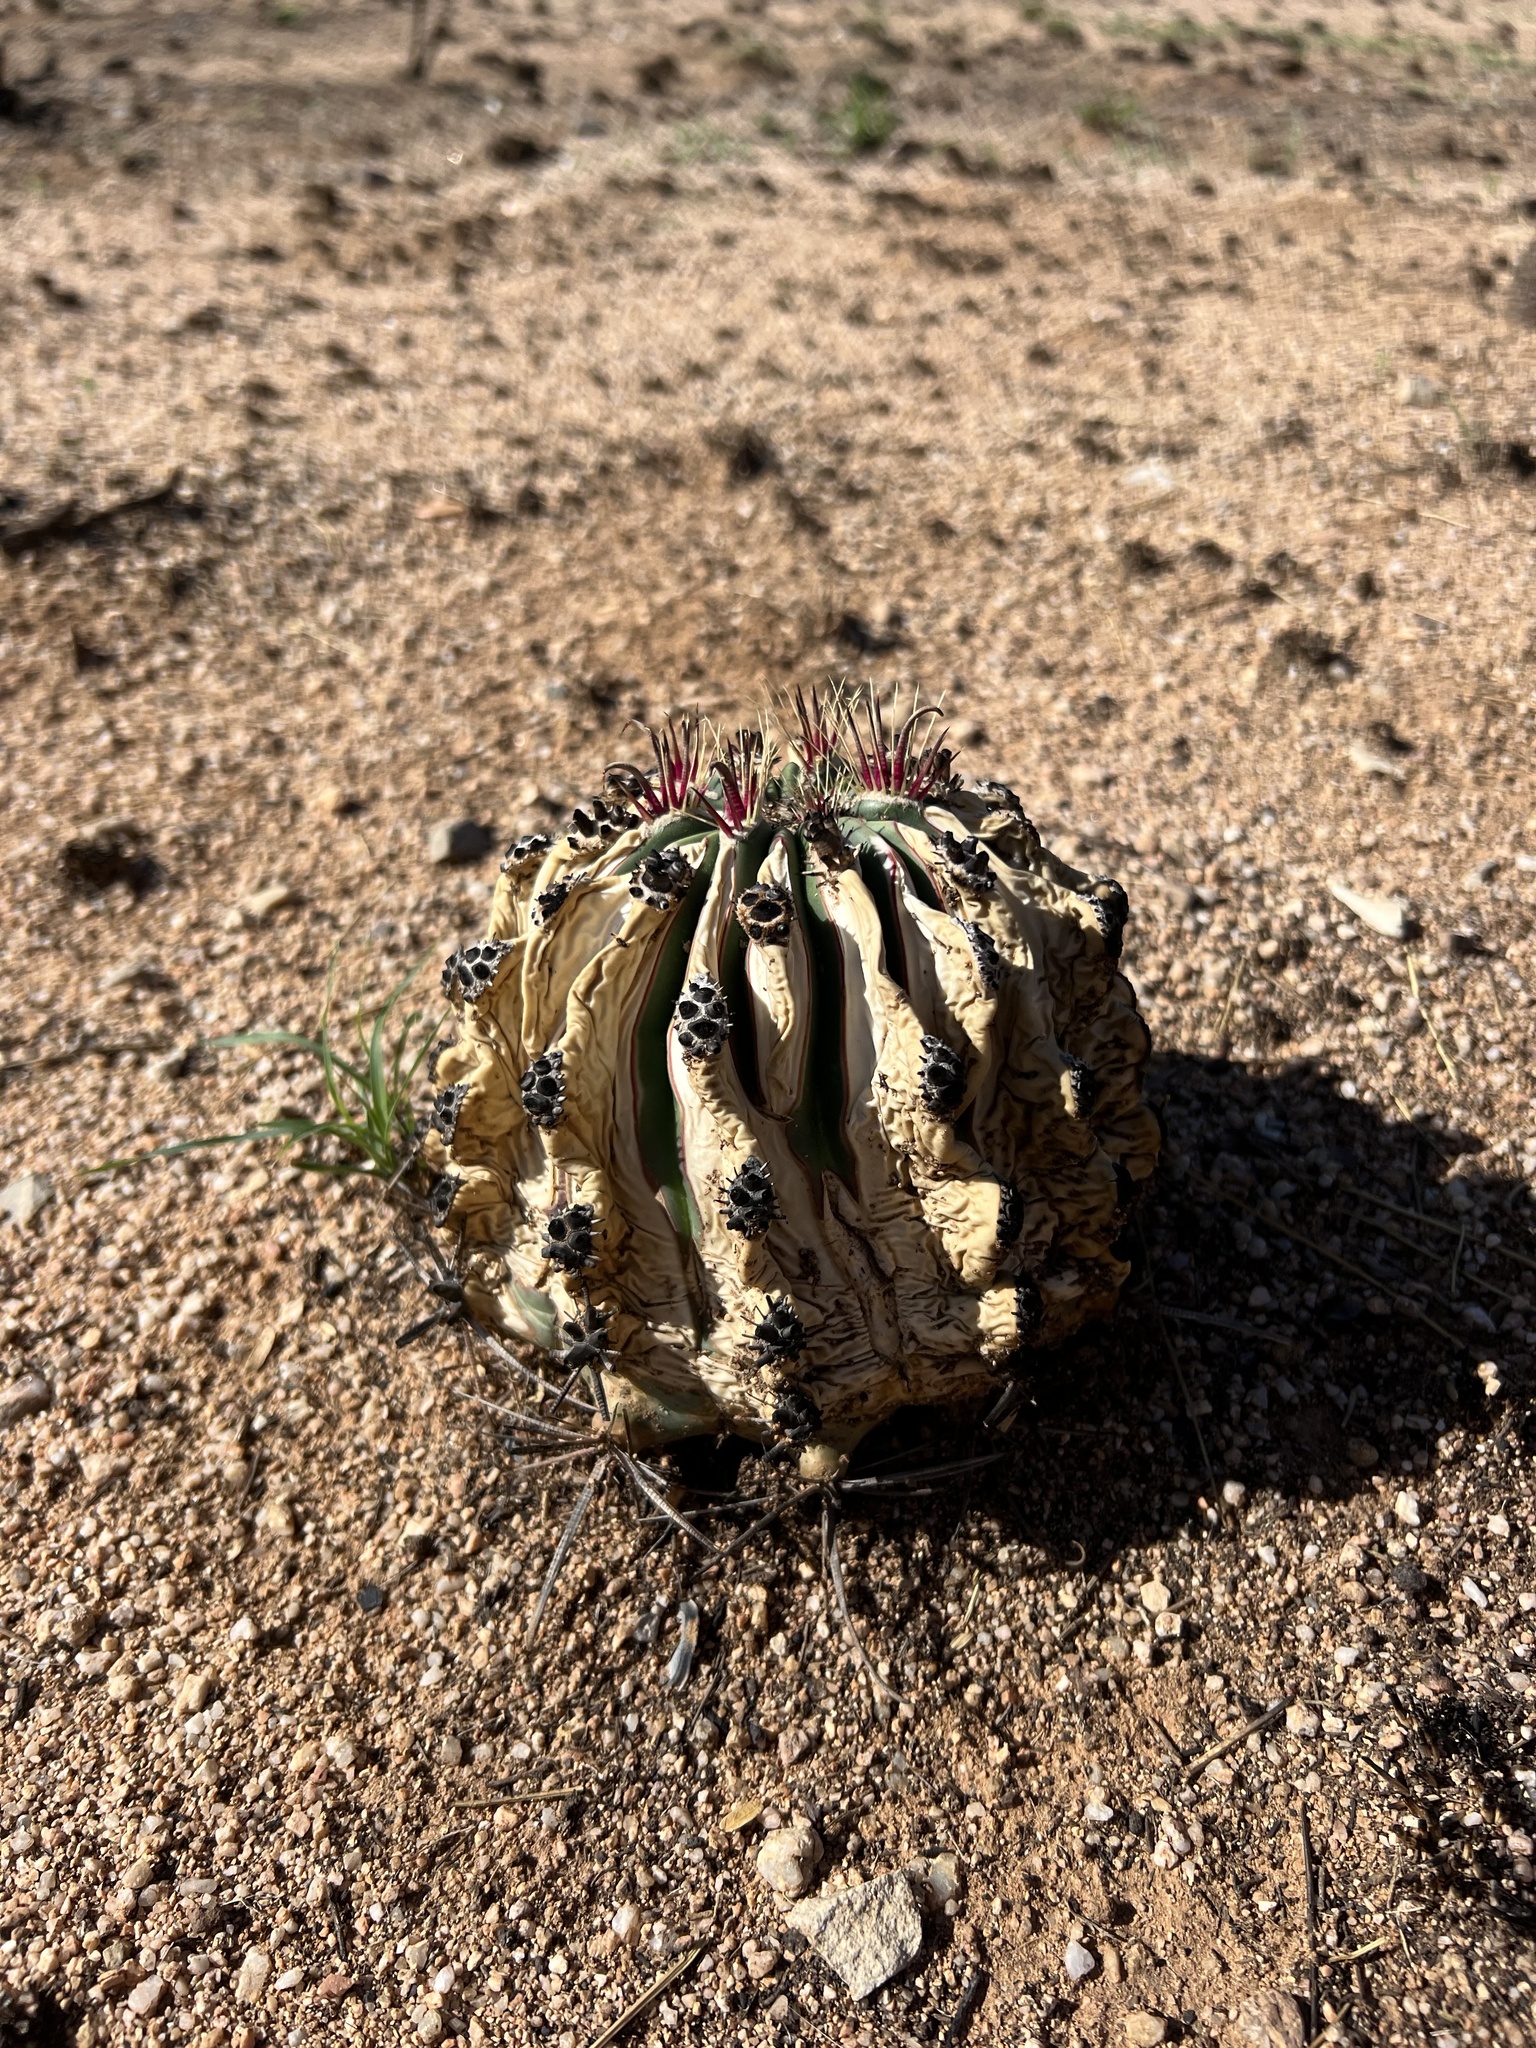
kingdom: Plantae
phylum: Tracheophyta
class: Magnoliopsida
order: Caryophyllales
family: Cactaceae
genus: Ferocactus
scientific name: Ferocactus wislizeni
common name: Candy barrel cactus
